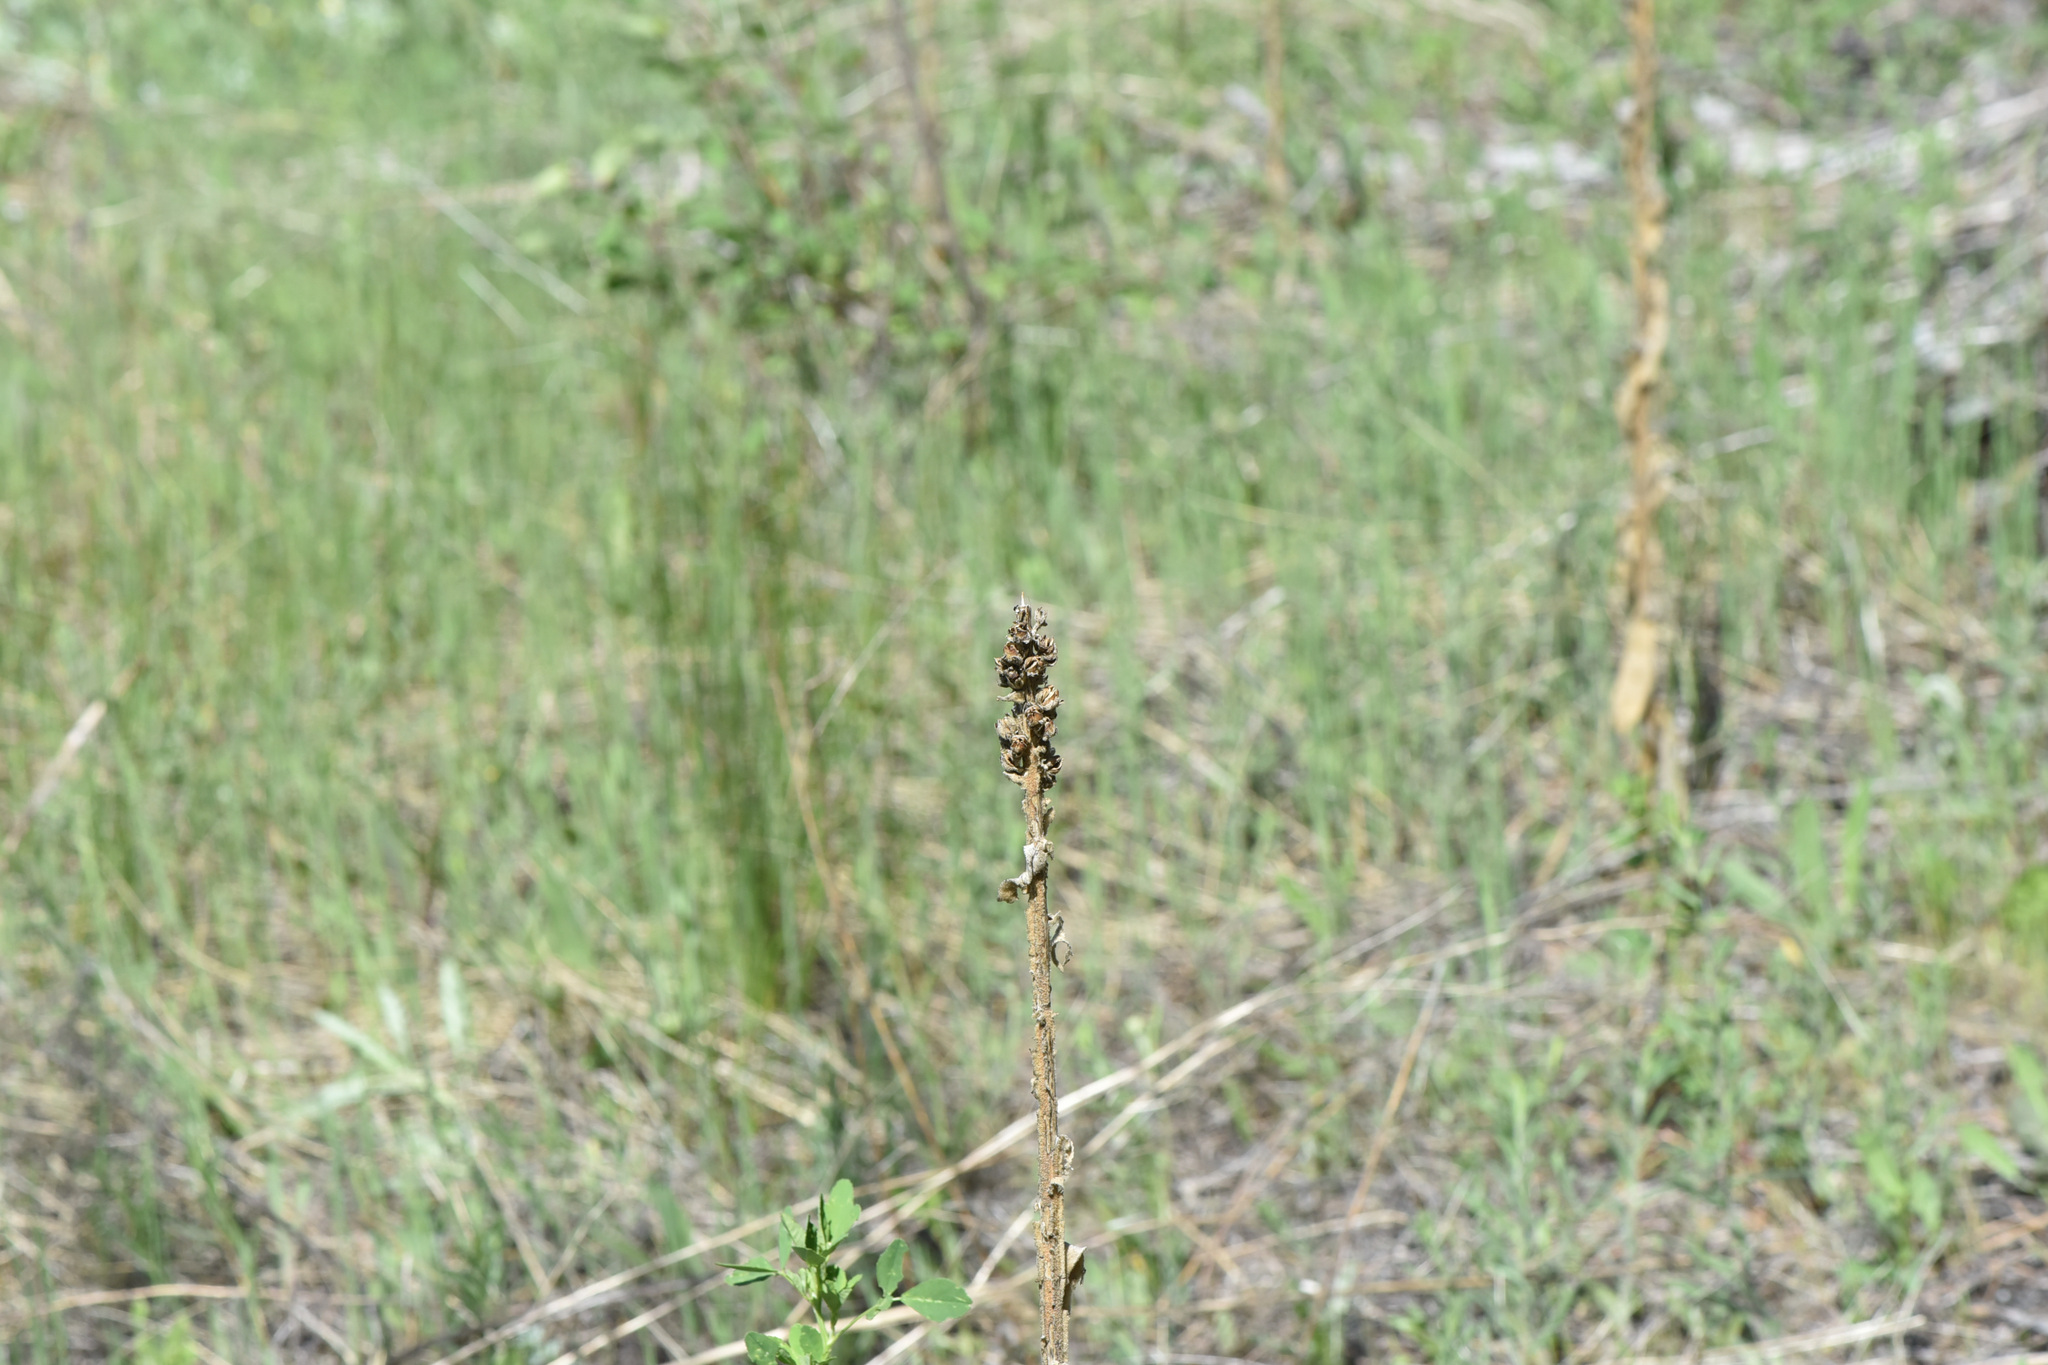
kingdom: Plantae
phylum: Tracheophyta
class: Magnoliopsida
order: Lamiales
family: Scrophulariaceae
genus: Verbascum
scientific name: Verbascum thapsus
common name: Common mullein
